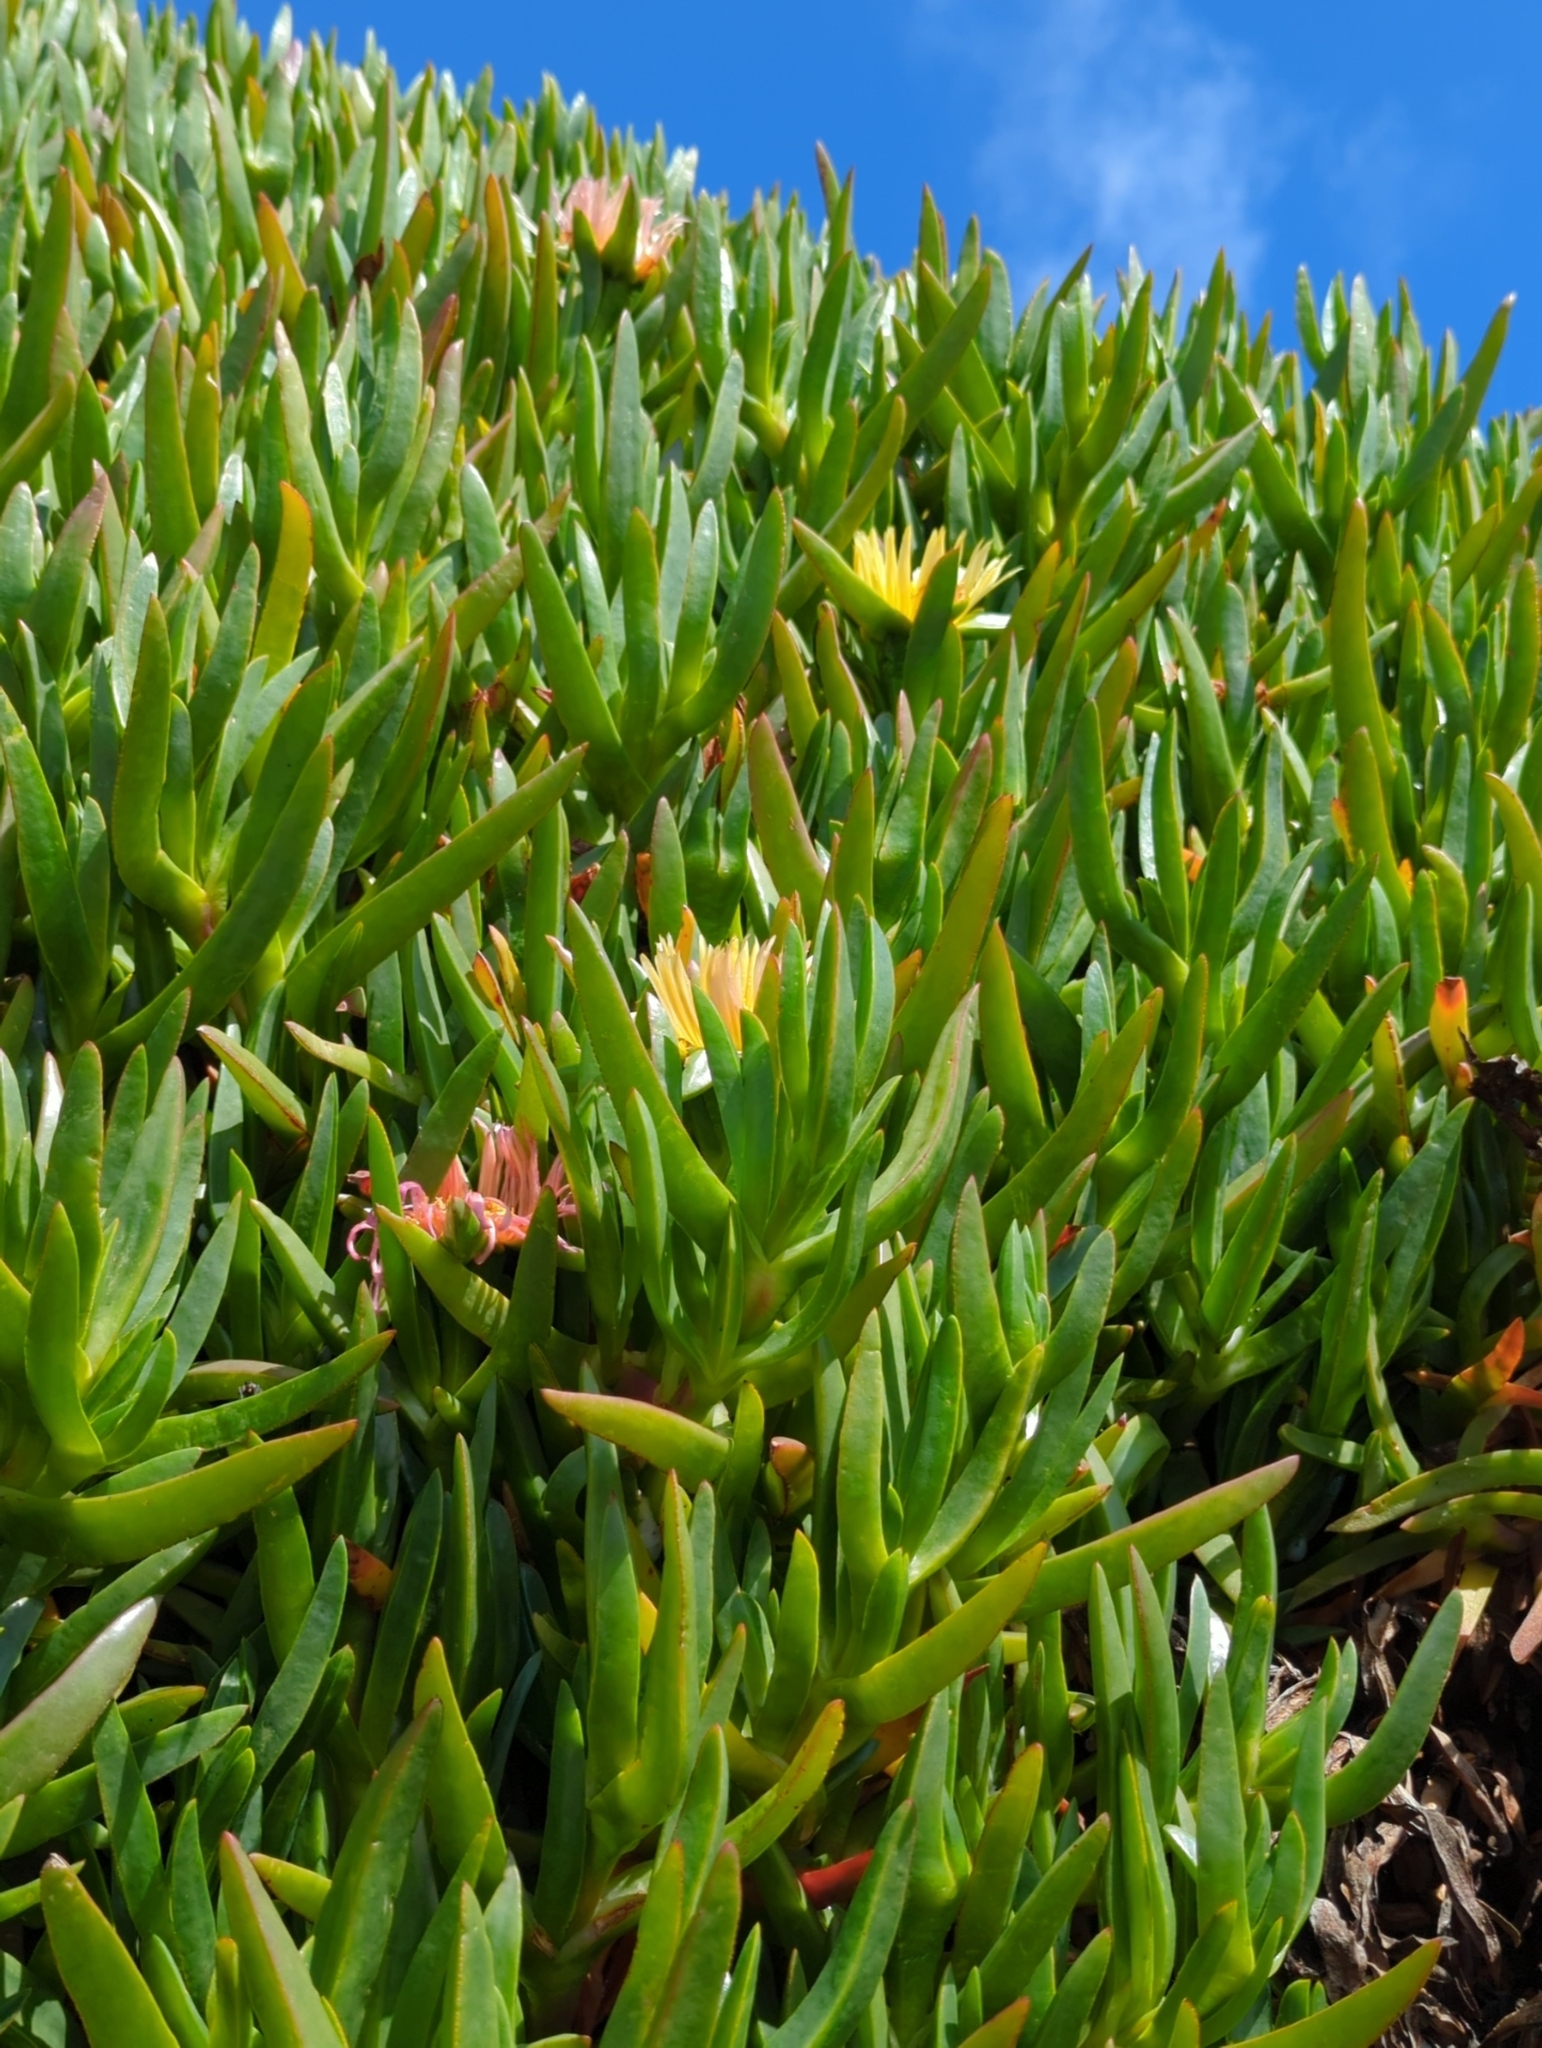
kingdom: Plantae
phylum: Tracheophyta
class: Magnoliopsida
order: Caryophyllales
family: Aizoaceae
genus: Carpobrotus
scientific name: Carpobrotus edulis
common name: Hottentot-fig
